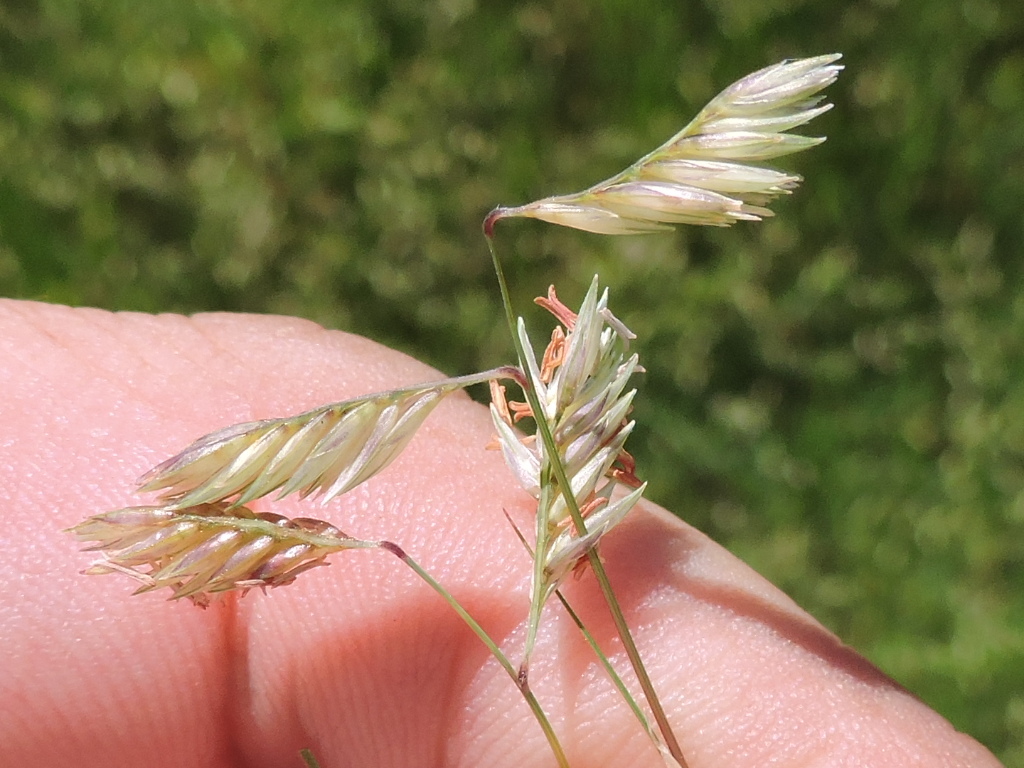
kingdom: Plantae
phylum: Tracheophyta
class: Liliopsida
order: Poales
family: Poaceae
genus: Bouteloua
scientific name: Bouteloua dactyloides
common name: Buffalo grass
